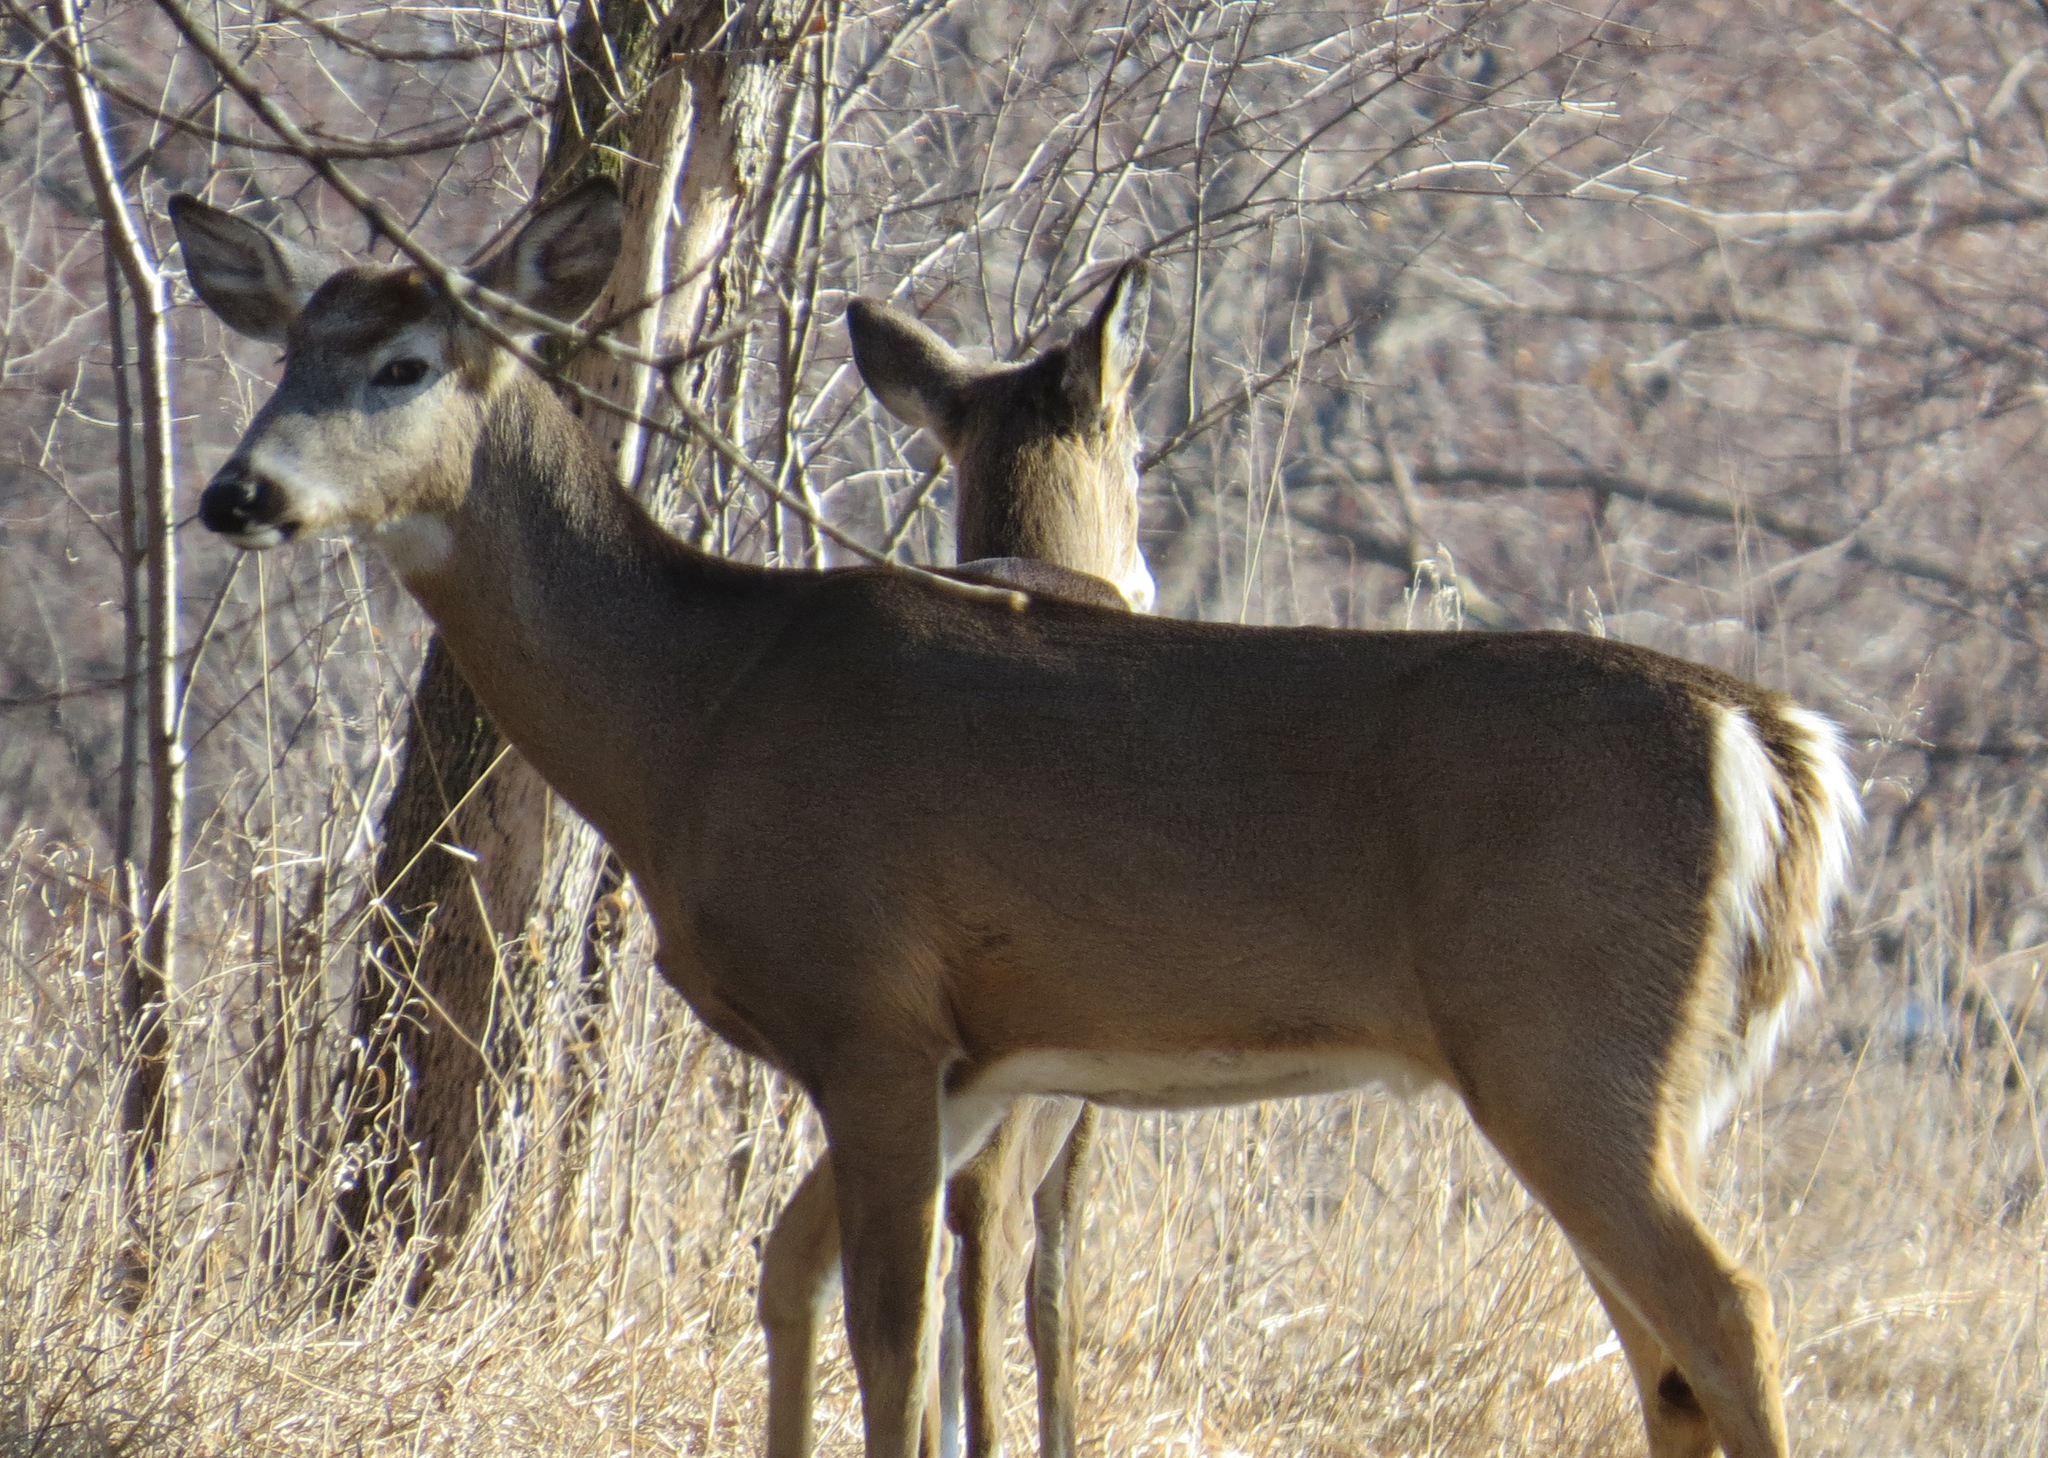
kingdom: Animalia
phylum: Chordata
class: Mammalia
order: Artiodactyla
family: Cervidae
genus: Odocoileus
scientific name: Odocoileus virginianus
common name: White-tailed deer
